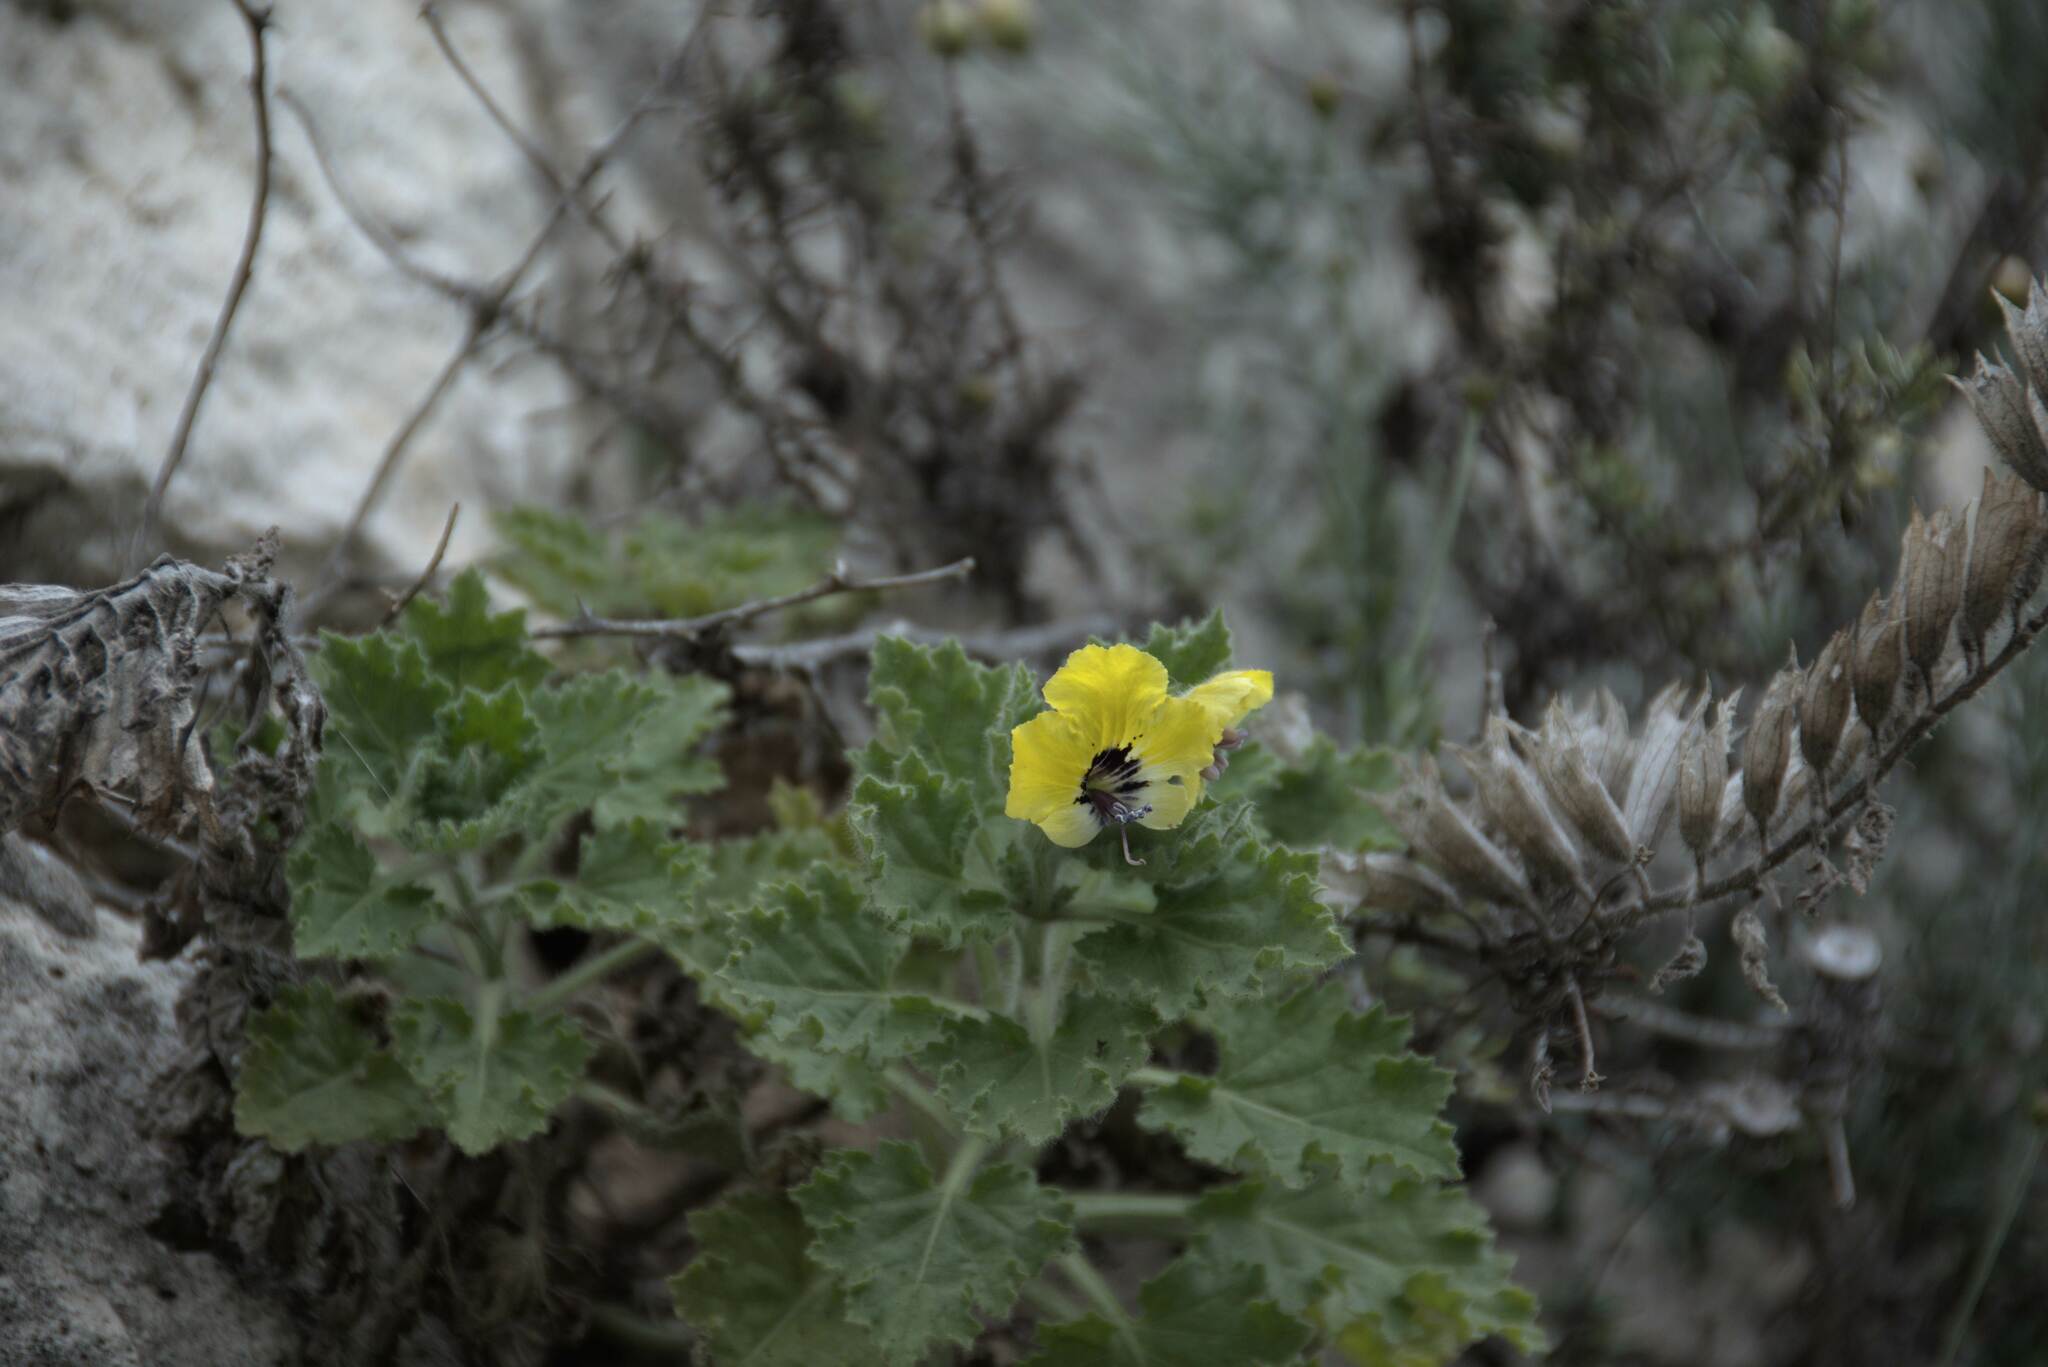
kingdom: Plantae
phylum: Tracheophyta
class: Magnoliopsida
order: Solanales
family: Solanaceae
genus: Hyoscyamus
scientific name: Hyoscyamus aureus
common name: Golden henbane
